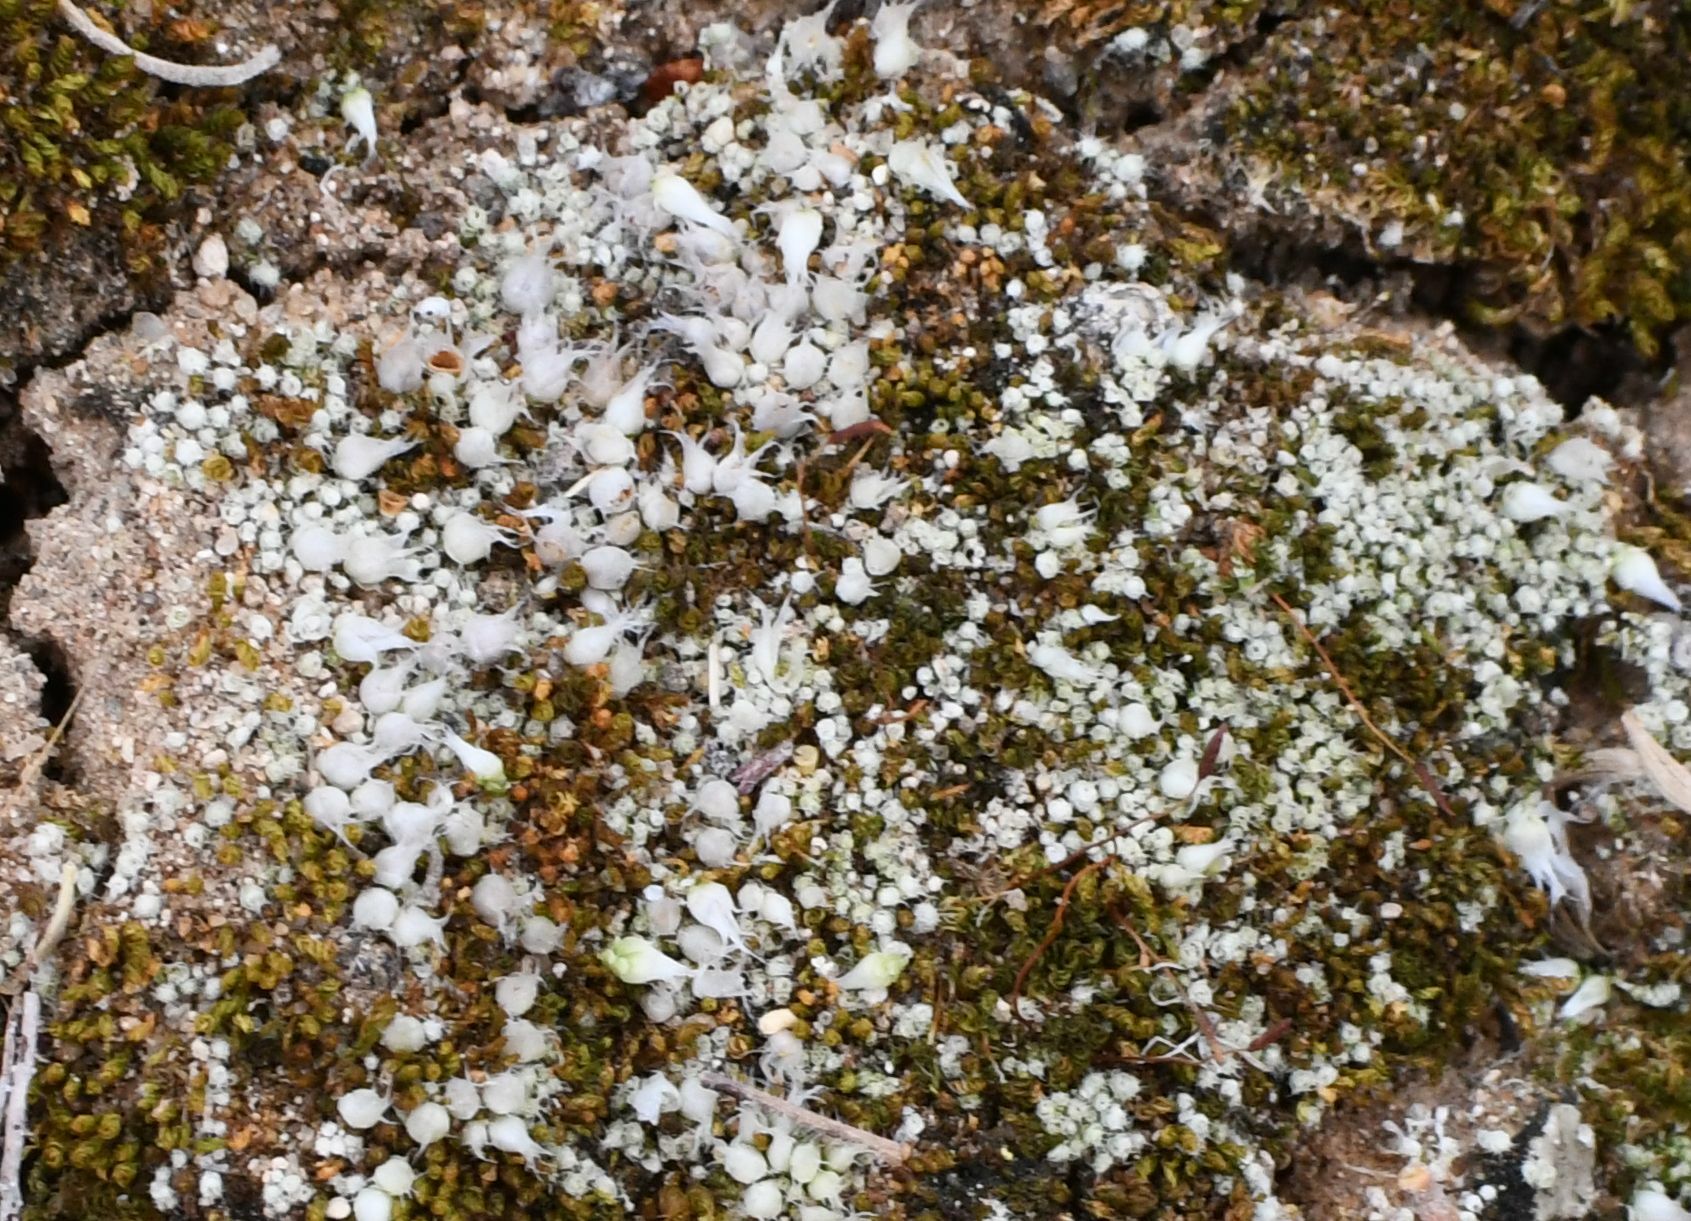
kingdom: Plantae
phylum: Bryophyta
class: Bryopsida
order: Gigaspermales
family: Gigaspermaceae
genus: Gigaspermum
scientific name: Gigaspermum repens
